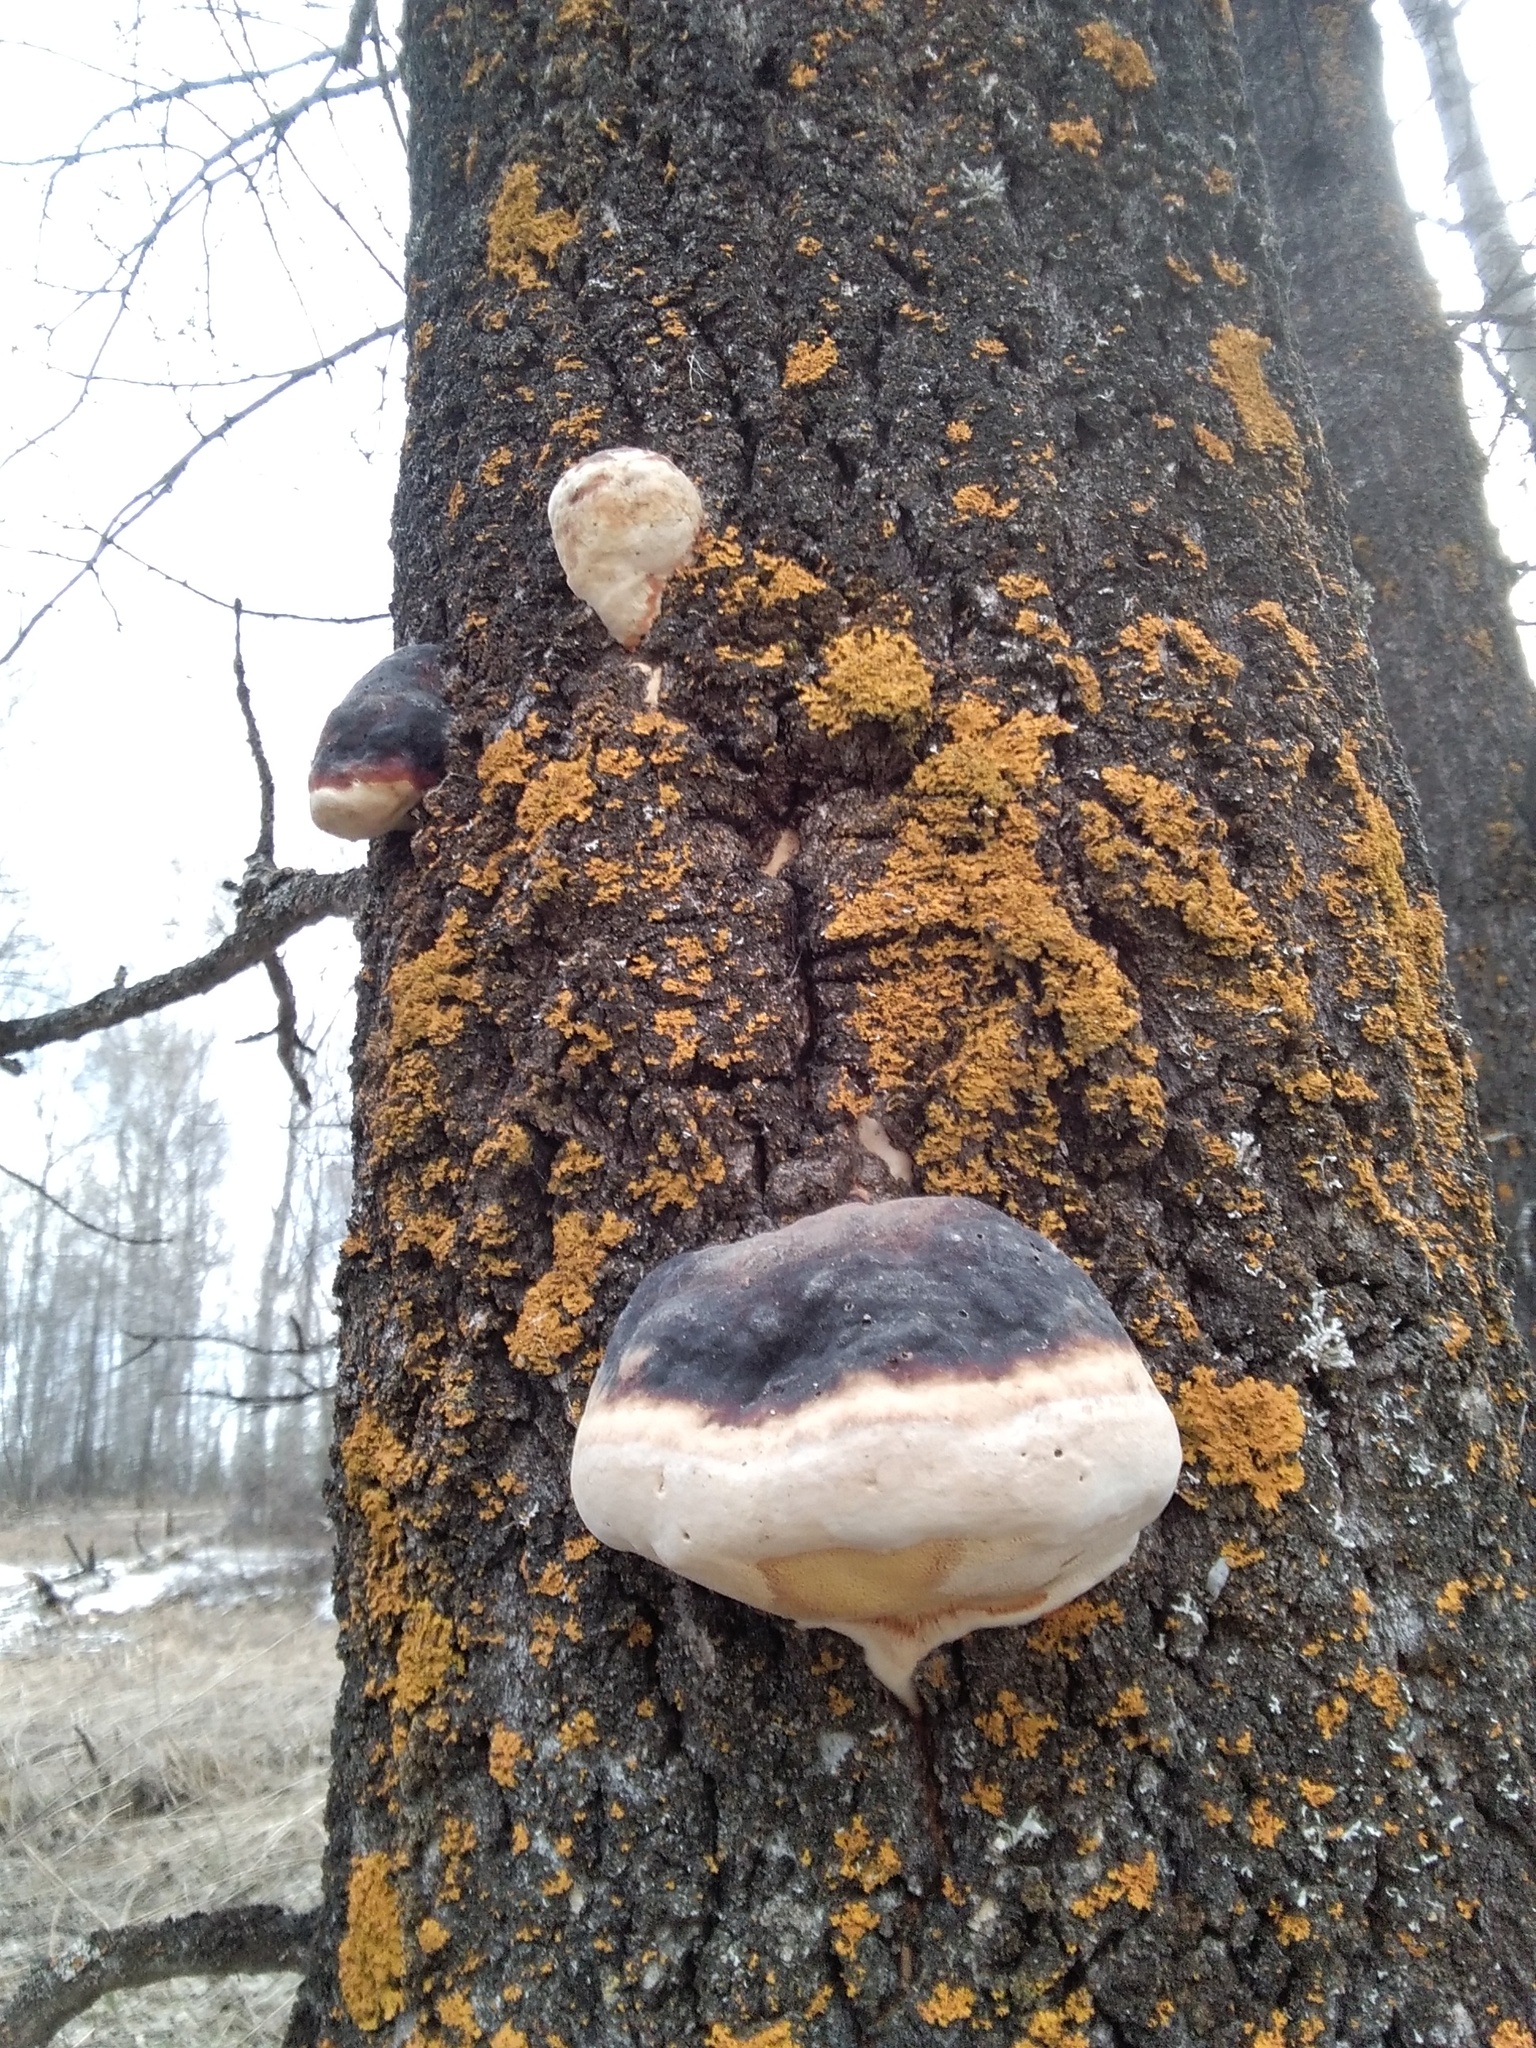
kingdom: Fungi
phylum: Basidiomycota
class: Agaricomycetes
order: Polyporales
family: Fomitopsidaceae
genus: Fomitopsis
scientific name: Fomitopsis pinicola
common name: Red-belted bracket
